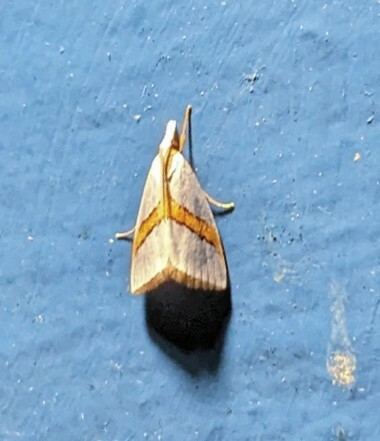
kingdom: Animalia
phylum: Arthropoda
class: Insecta
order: Lepidoptera
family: Crambidae
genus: Vaxi
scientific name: Vaxi critica
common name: Straight-lined vaxi moth
